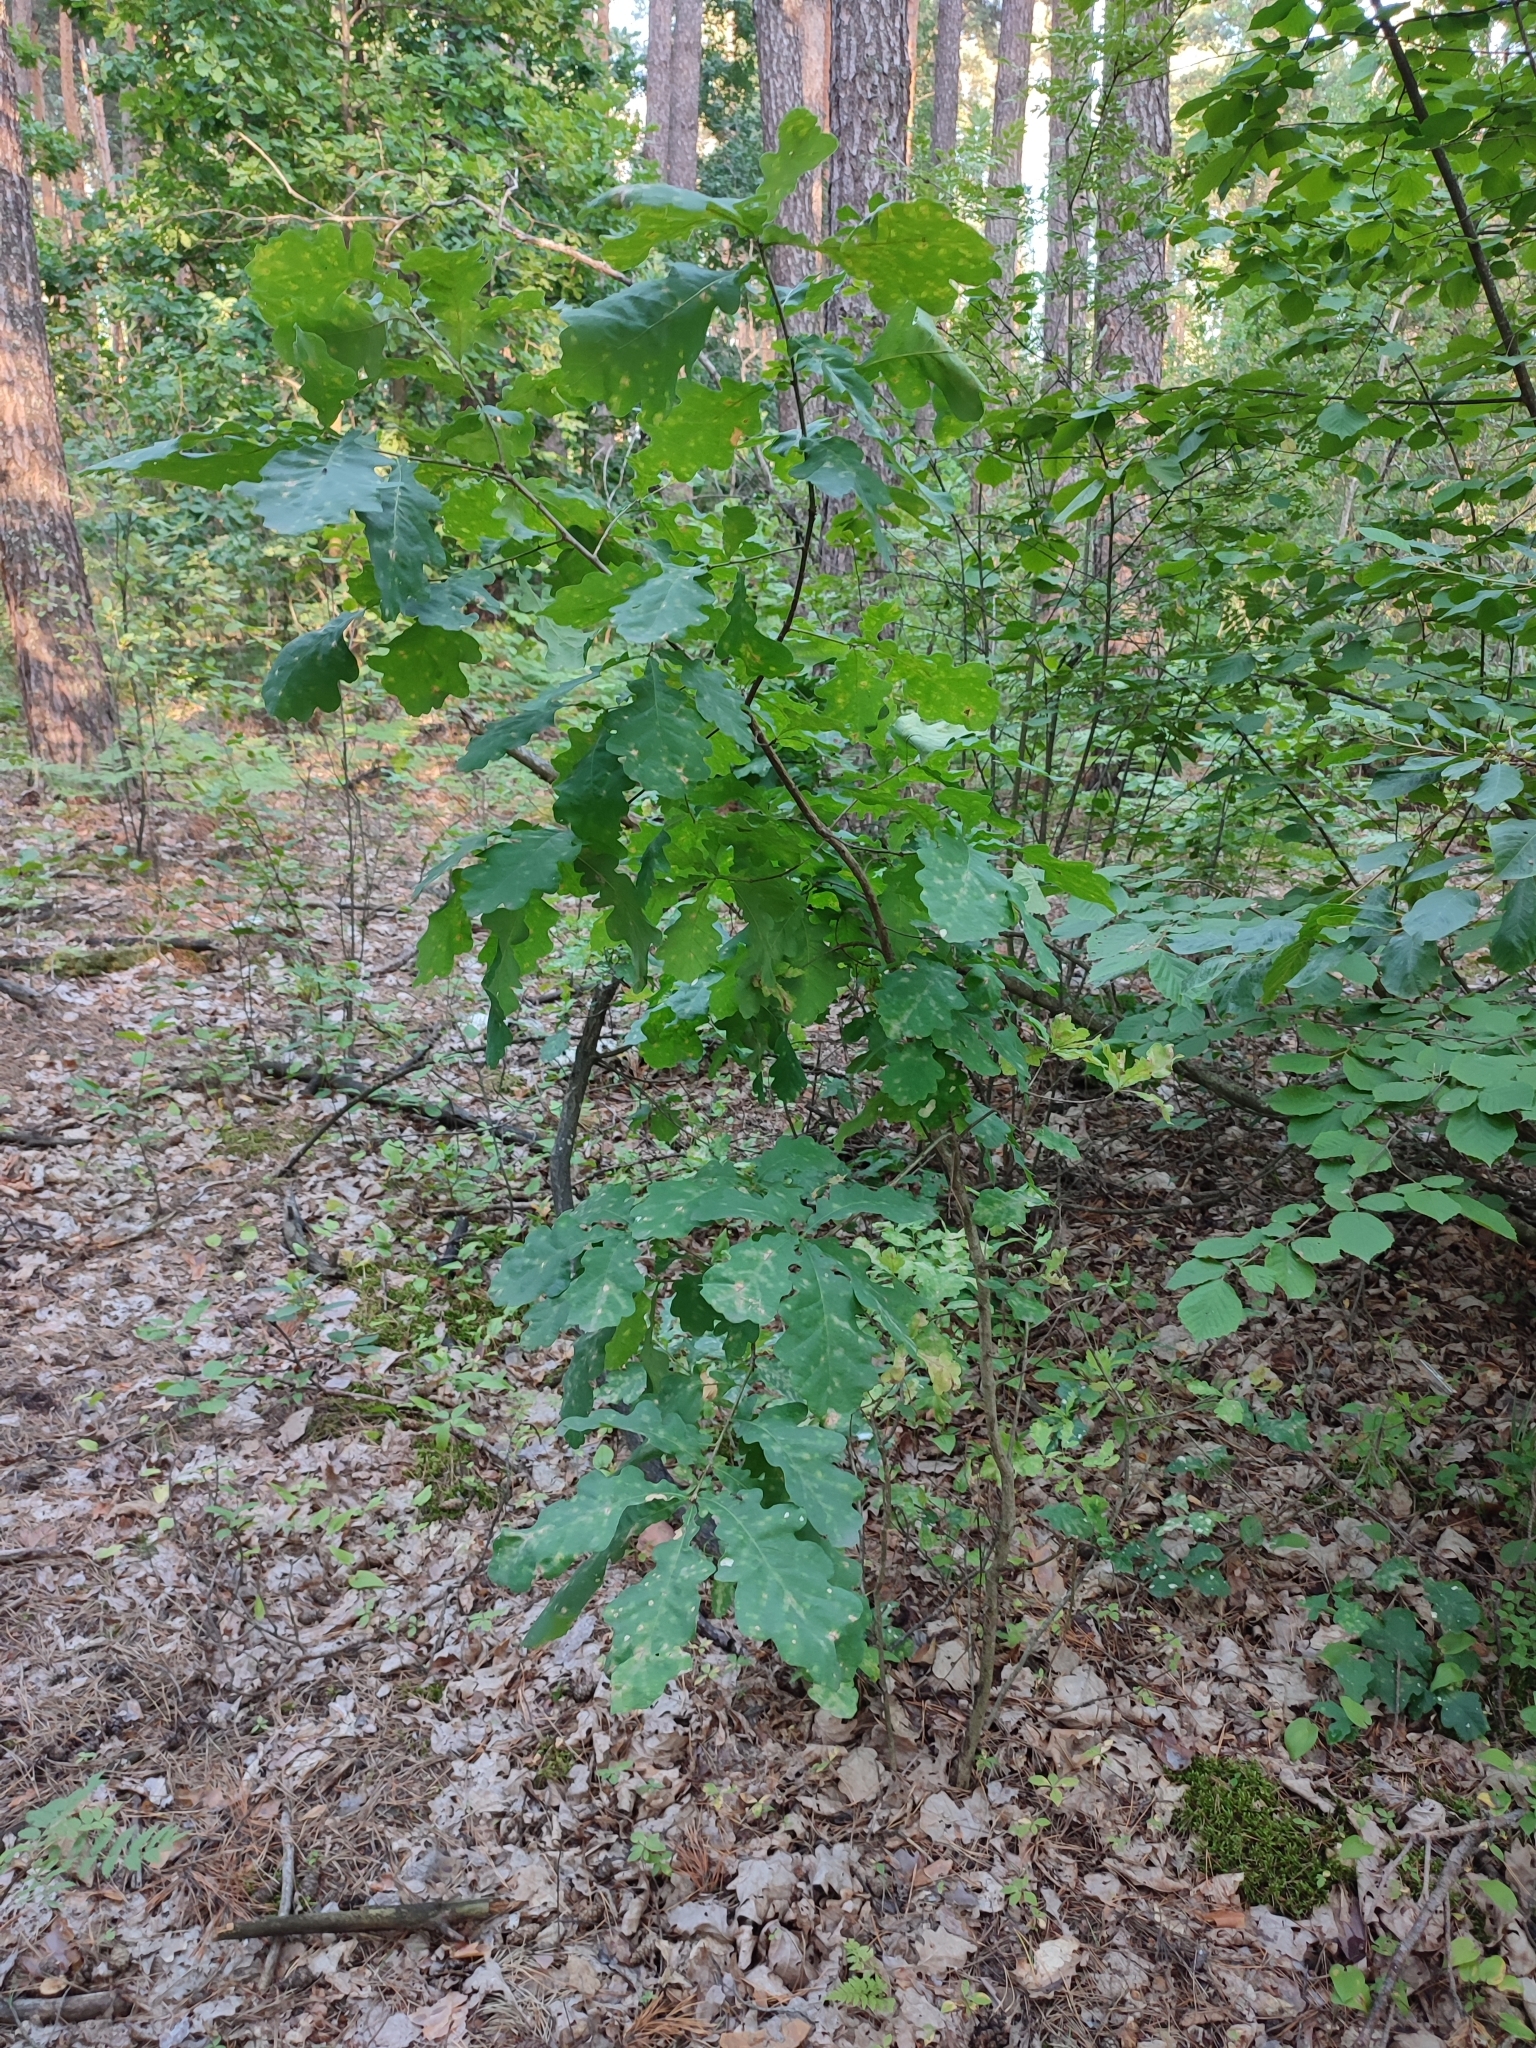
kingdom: Plantae
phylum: Tracheophyta
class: Magnoliopsida
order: Fagales
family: Fagaceae
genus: Quercus
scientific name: Quercus robur
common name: Pedunculate oak
